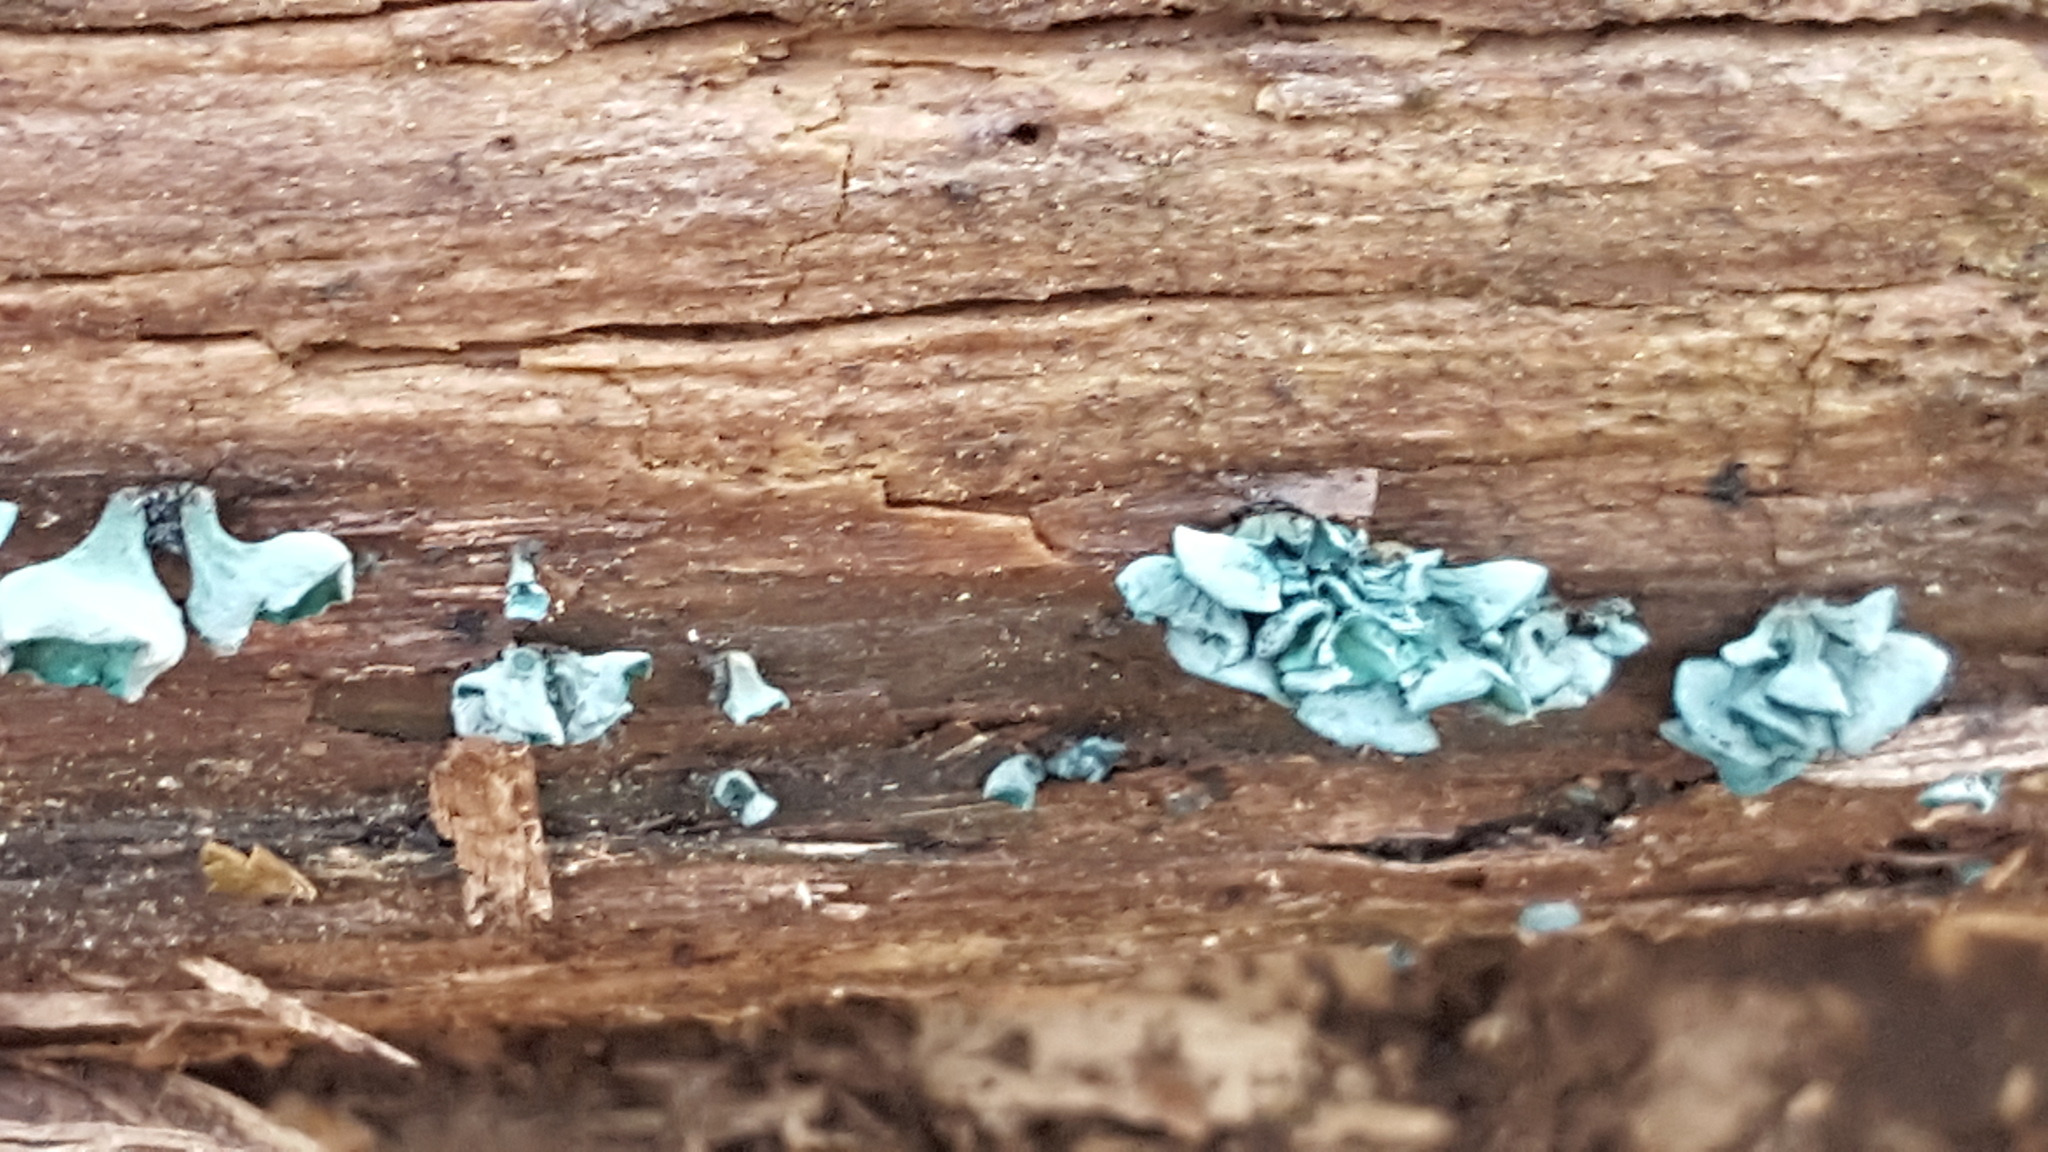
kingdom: Fungi
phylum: Ascomycota
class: Leotiomycetes
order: Helotiales
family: Chlorociboriaceae
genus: Chlorociboria
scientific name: Chlorociboria aeruginascens
